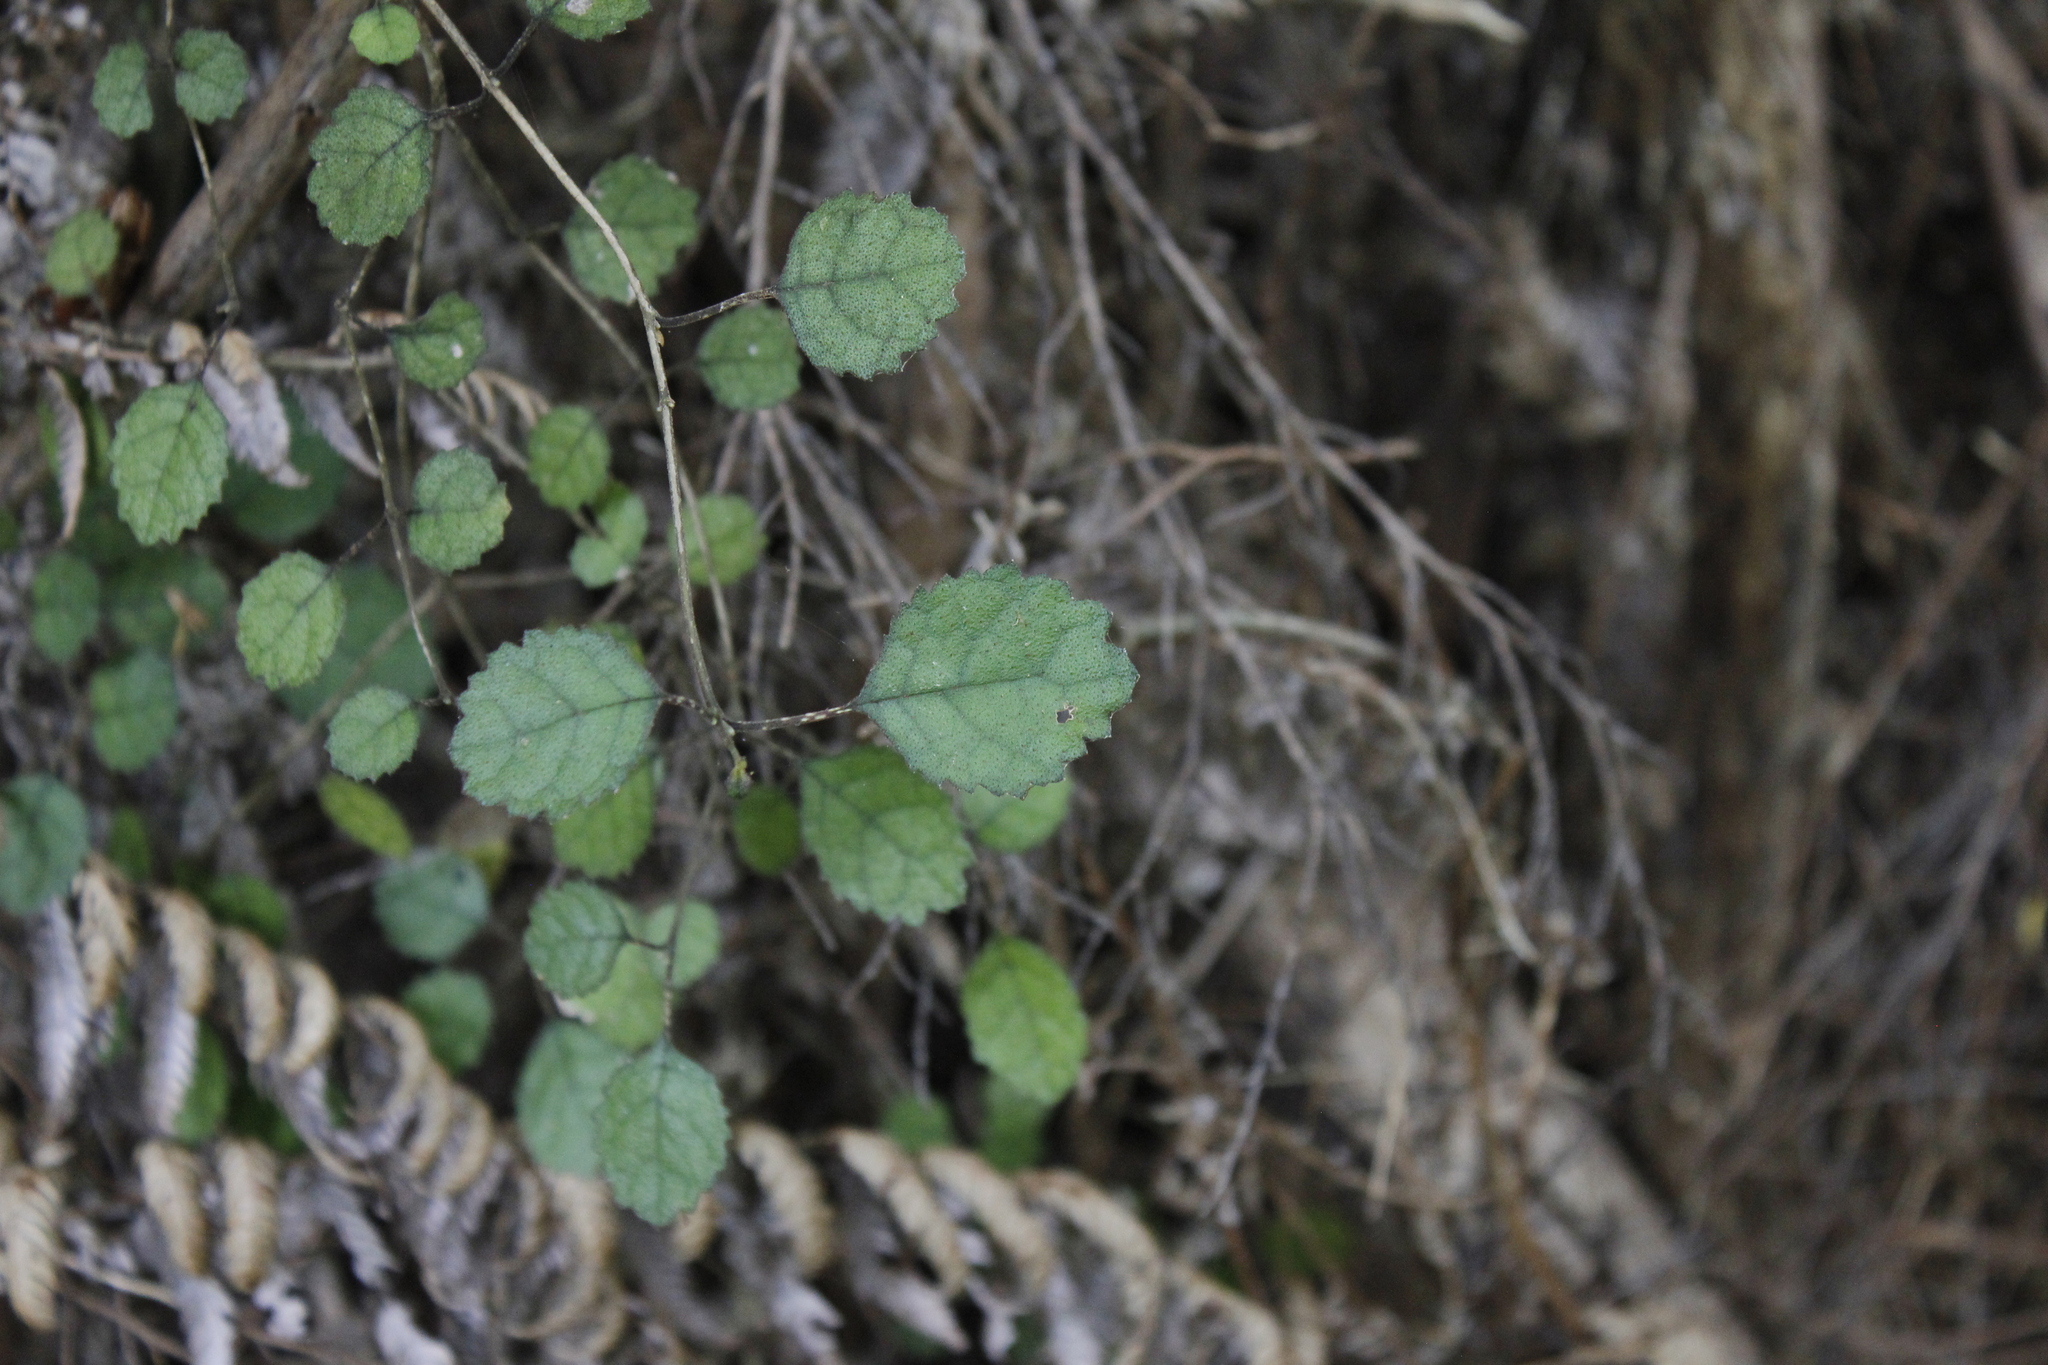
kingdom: Plantae
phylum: Tracheophyta
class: Magnoliopsida
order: Lamiales
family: Gesneriaceae
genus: Rhabdothamnus
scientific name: Rhabdothamnus solandri
